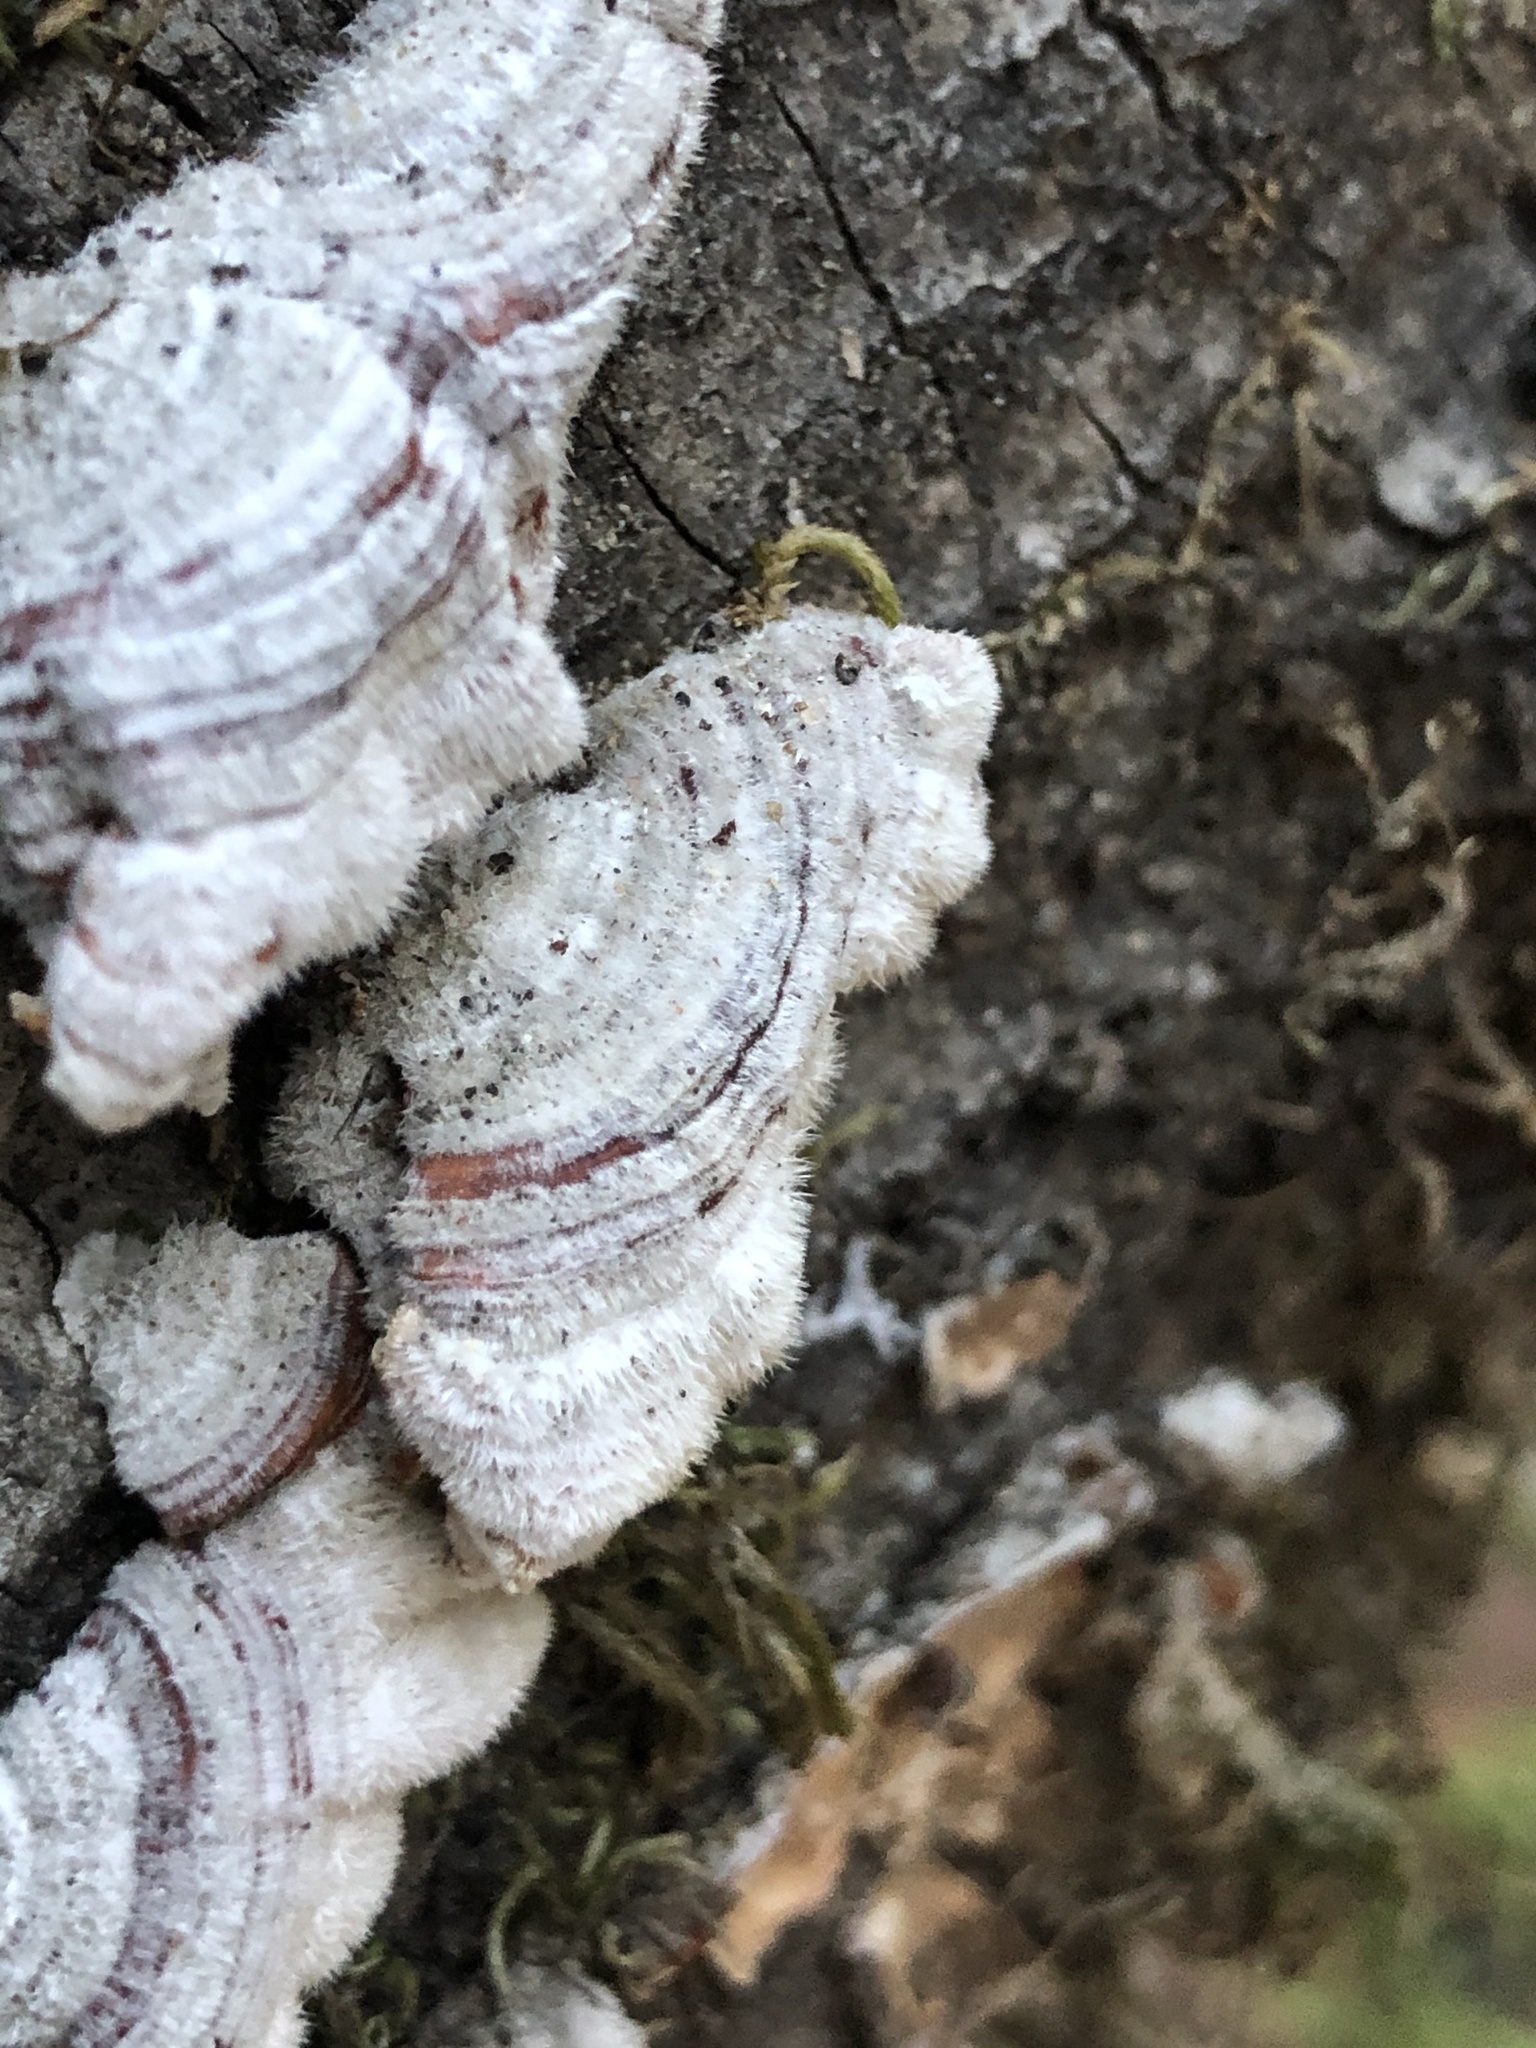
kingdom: Fungi
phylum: Basidiomycota
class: Agaricomycetes
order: Russulales
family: Stereaceae
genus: Stereum
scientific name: Stereum hirsutum
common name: Hairy curtain crust
